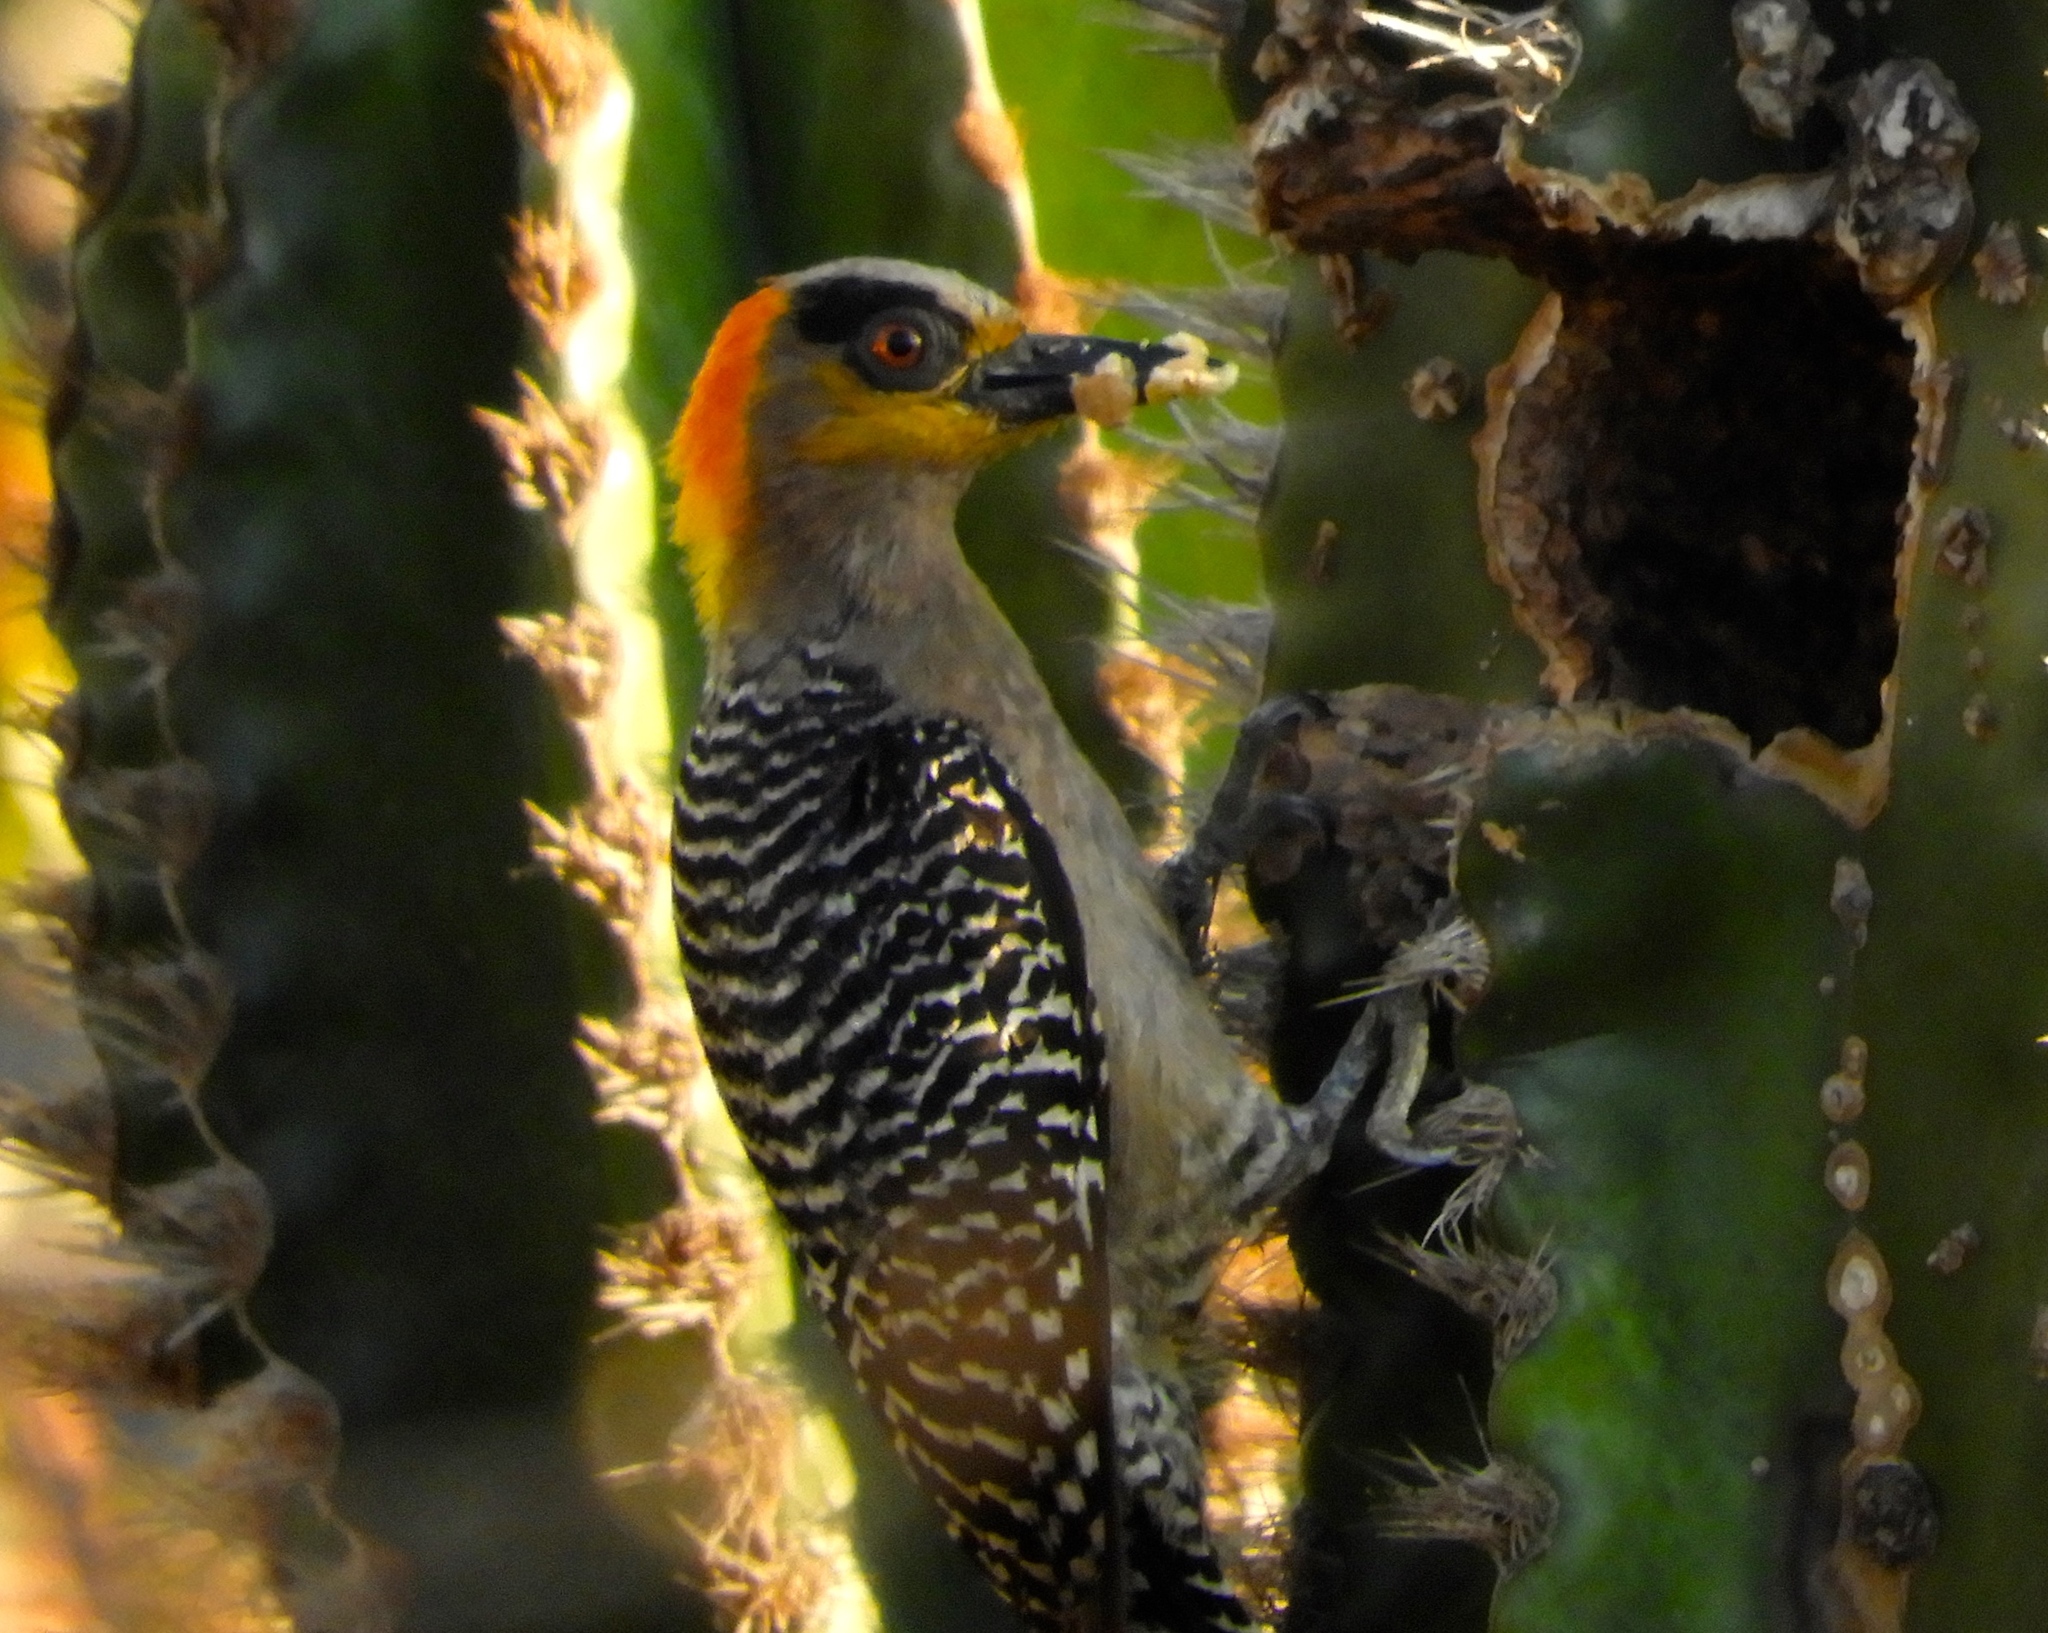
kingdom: Animalia
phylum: Chordata
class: Aves
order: Piciformes
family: Picidae
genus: Melanerpes
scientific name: Melanerpes chrysogenys
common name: Golden-cheeked woodpecker
